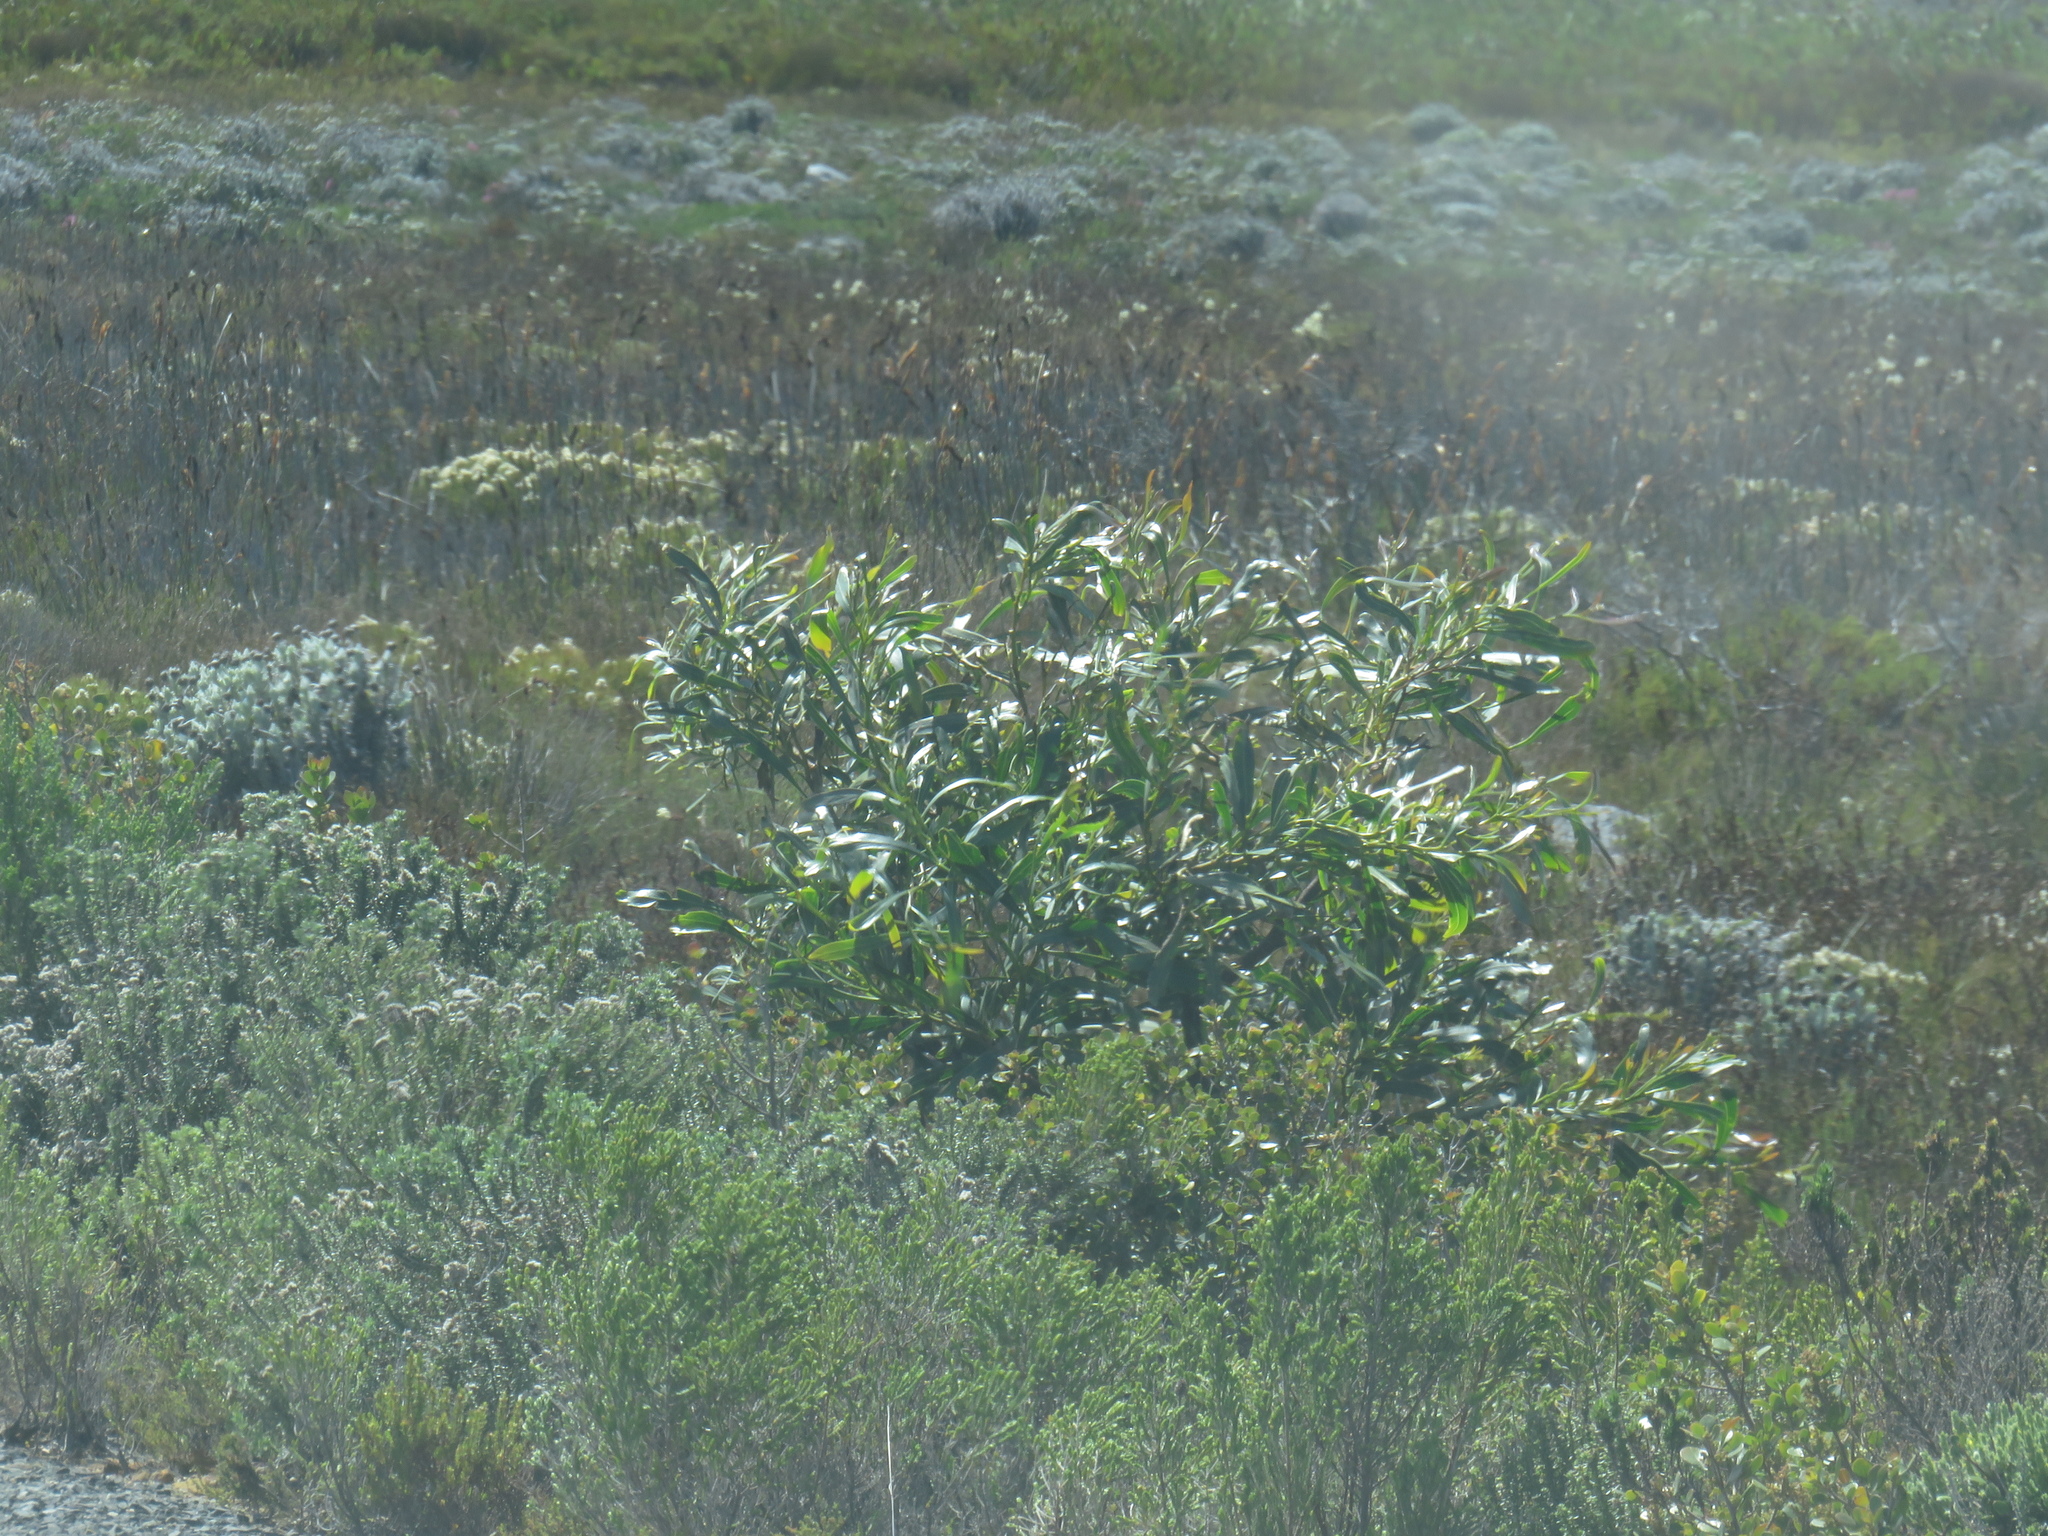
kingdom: Plantae
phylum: Tracheophyta
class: Magnoliopsida
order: Fabales
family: Fabaceae
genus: Acacia
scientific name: Acacia saligna
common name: Orange wattle
